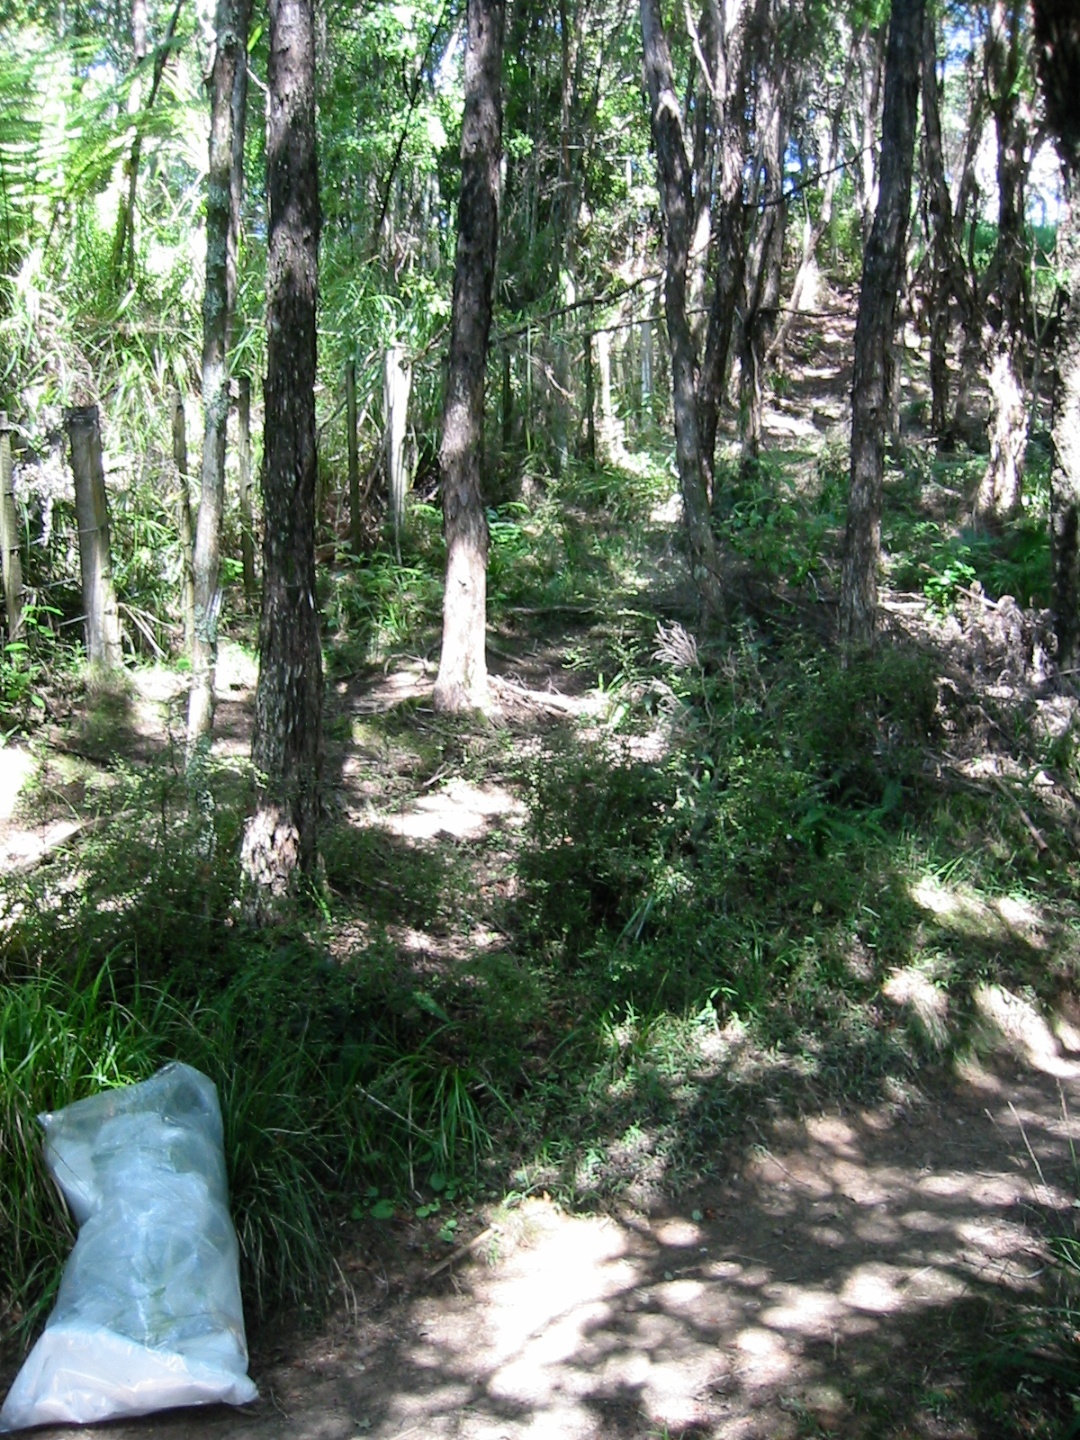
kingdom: Plantae
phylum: Tracheophyta
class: Magnoliopsida
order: Asterales
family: Asteraceae
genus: Jacobaea
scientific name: Jacobaea vulgaris
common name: Stinking willie
